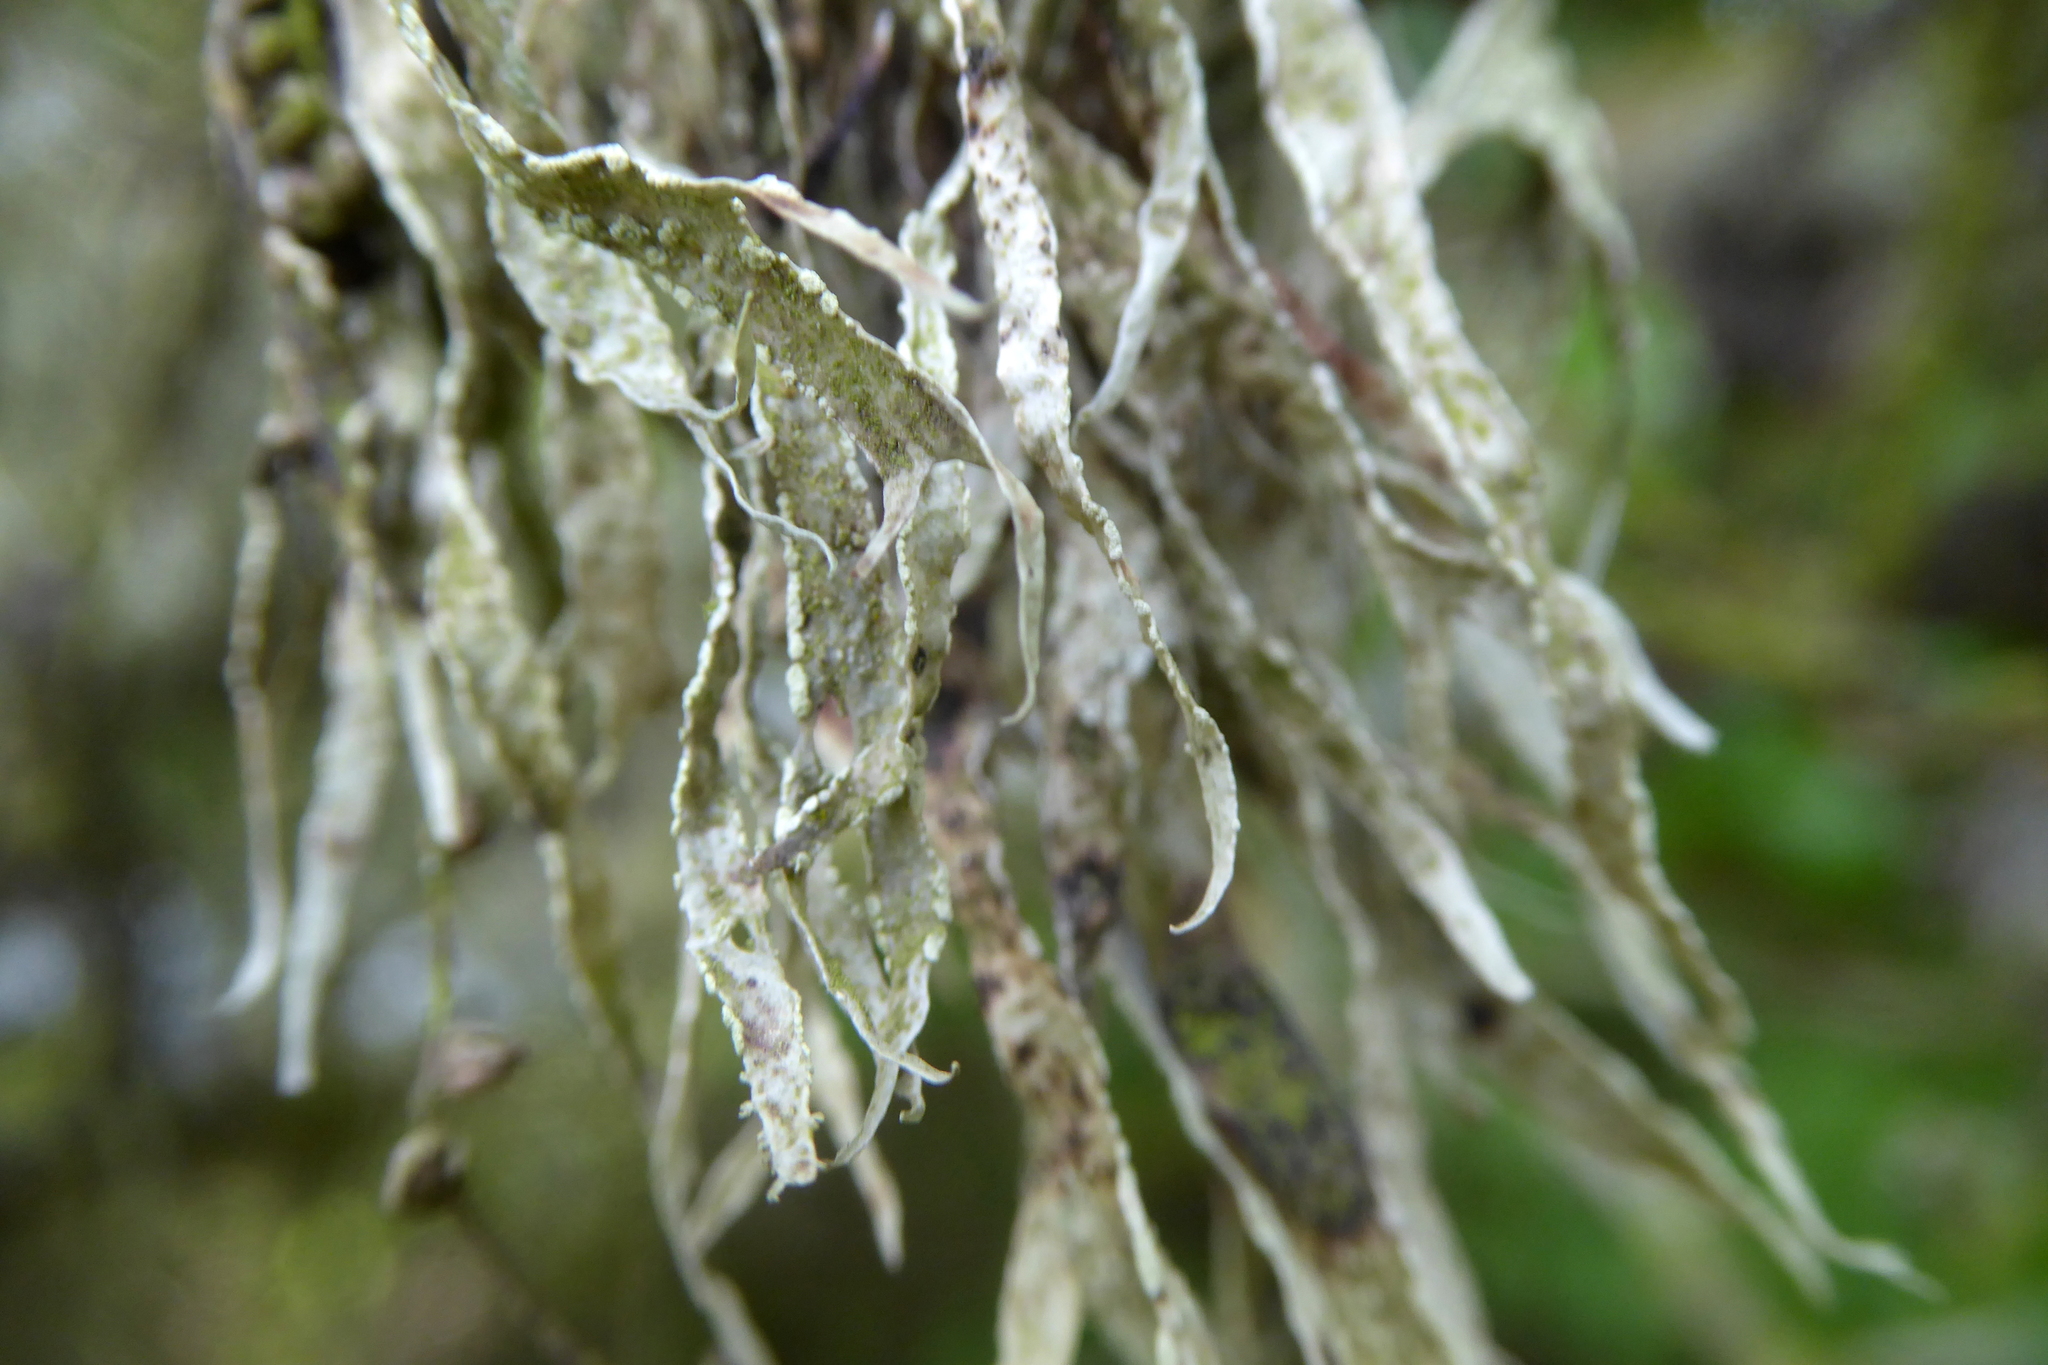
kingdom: Fungi
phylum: Ascomycota
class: Lecanoromycetes
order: Lecanorales
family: Ramalinaceae
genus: Ramalina
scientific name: Ramalina farinacea
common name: Farinose cartilage lichen
